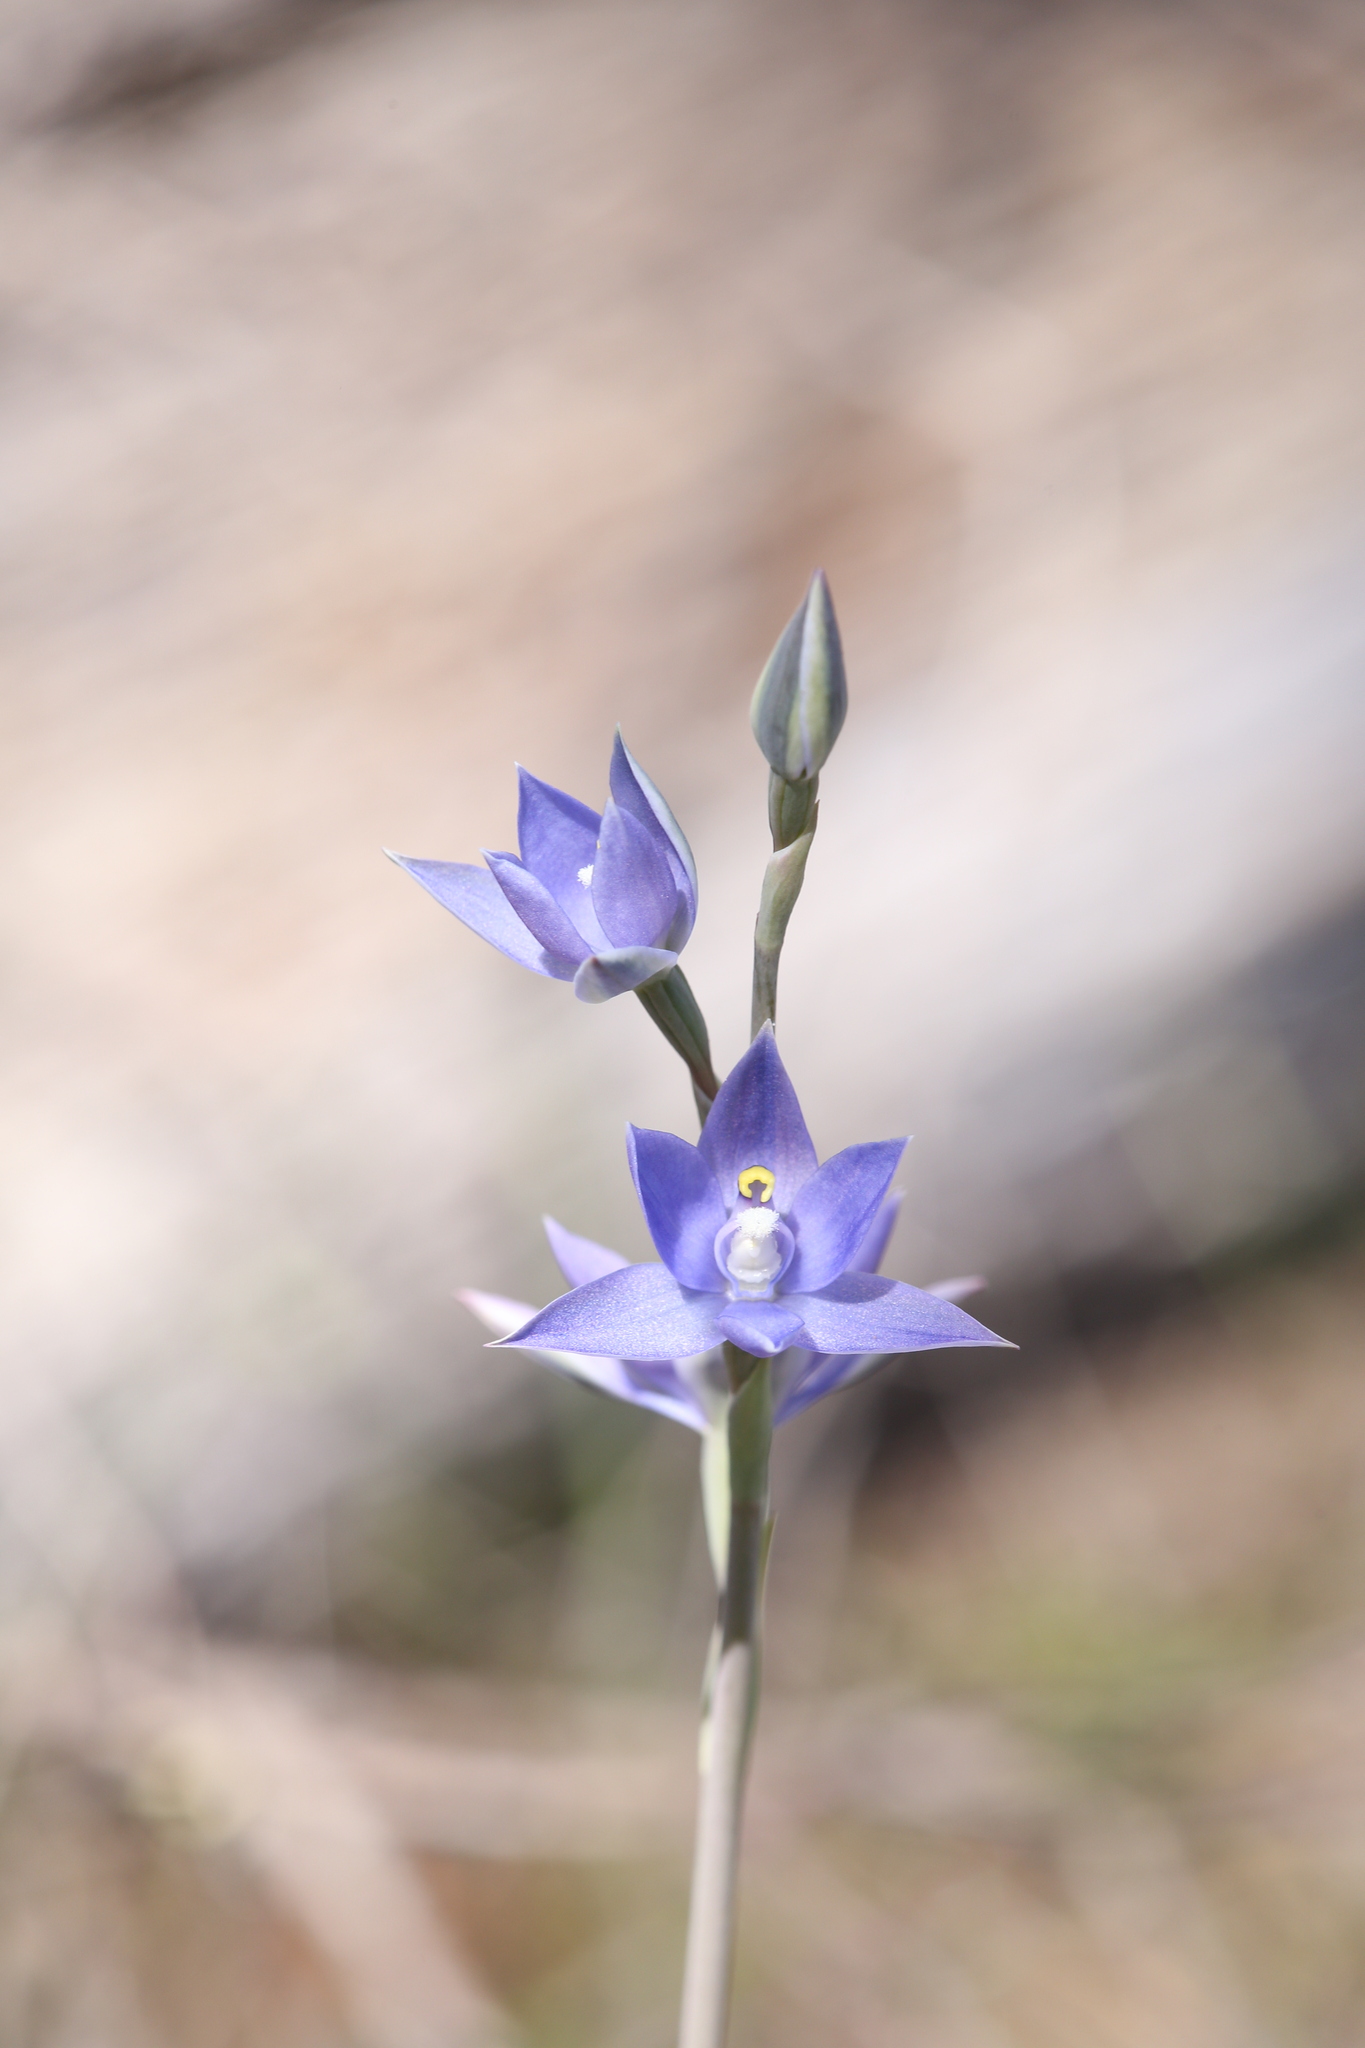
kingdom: Plantae
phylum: Tracheophyta
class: Liliopsida
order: Asparagales
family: Orchidaceae
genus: Thelymitra
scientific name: Thelymitra macrophylla
